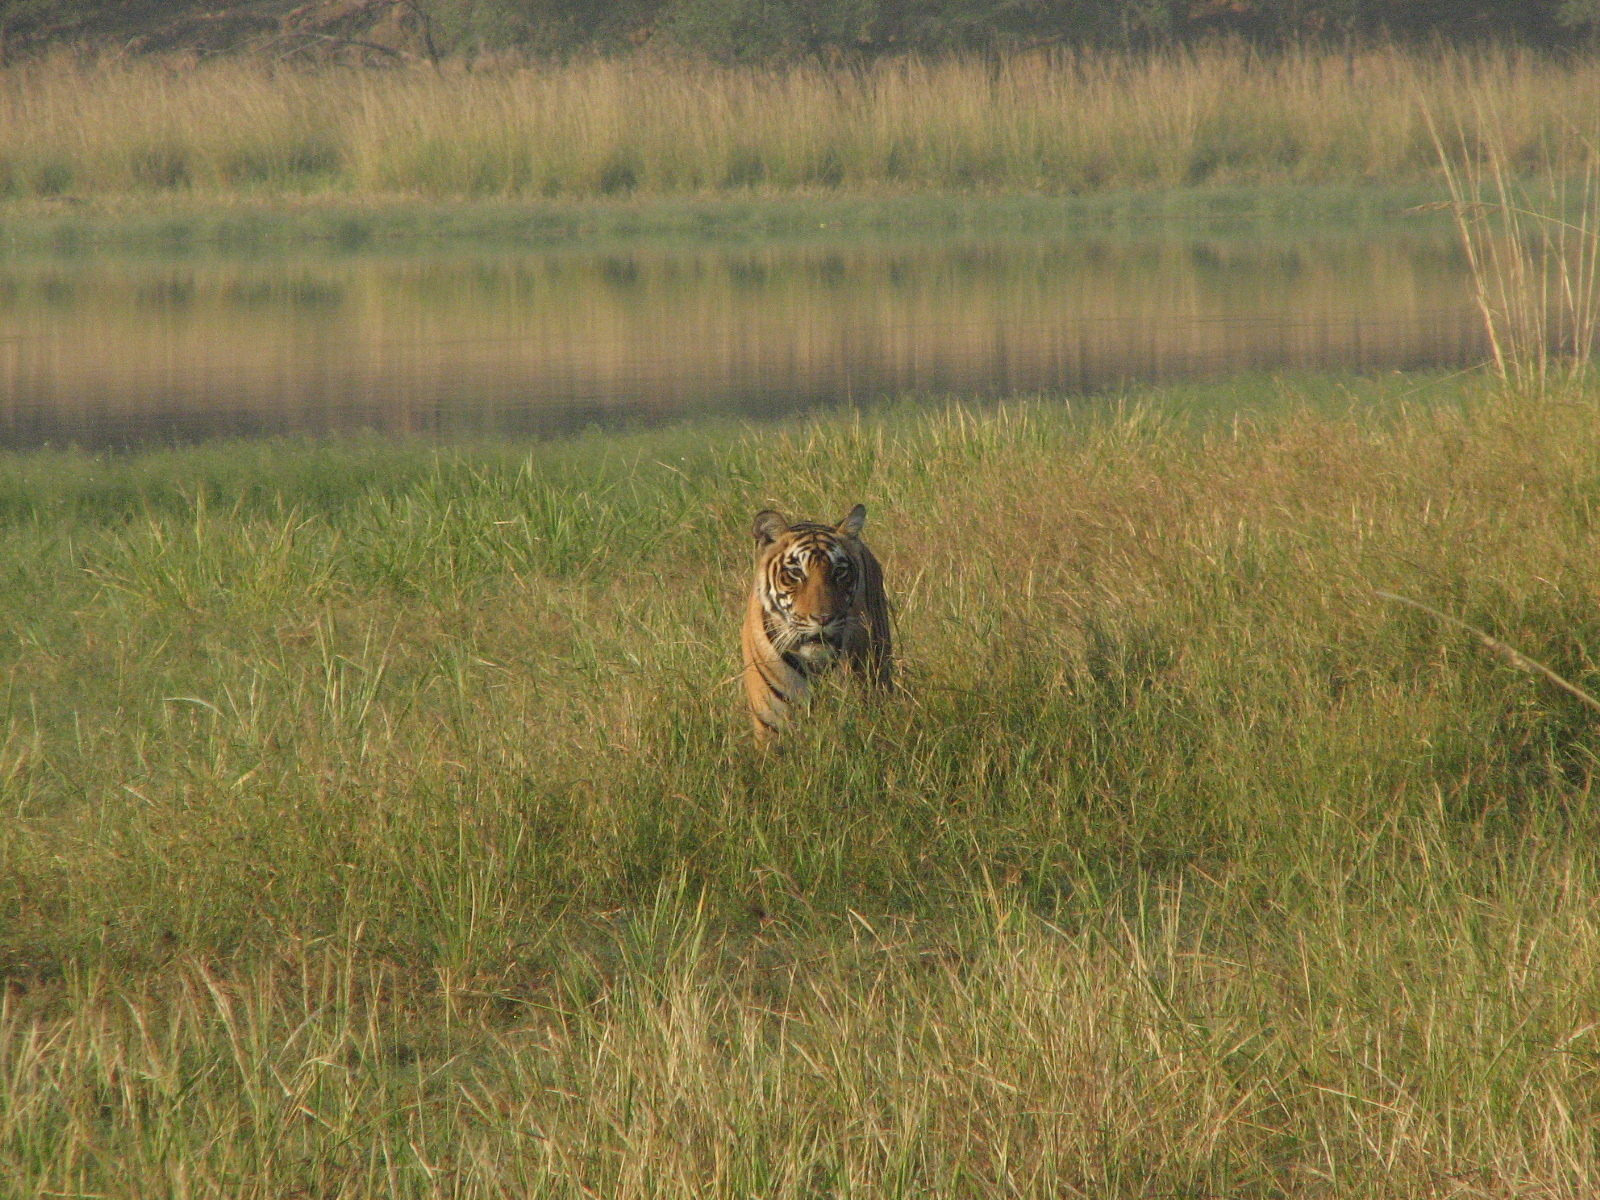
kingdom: Animalia
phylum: Chordata
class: Mammalia
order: Carnivora
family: Felidae
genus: Panthera
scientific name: Panthera tigris
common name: Tiger
